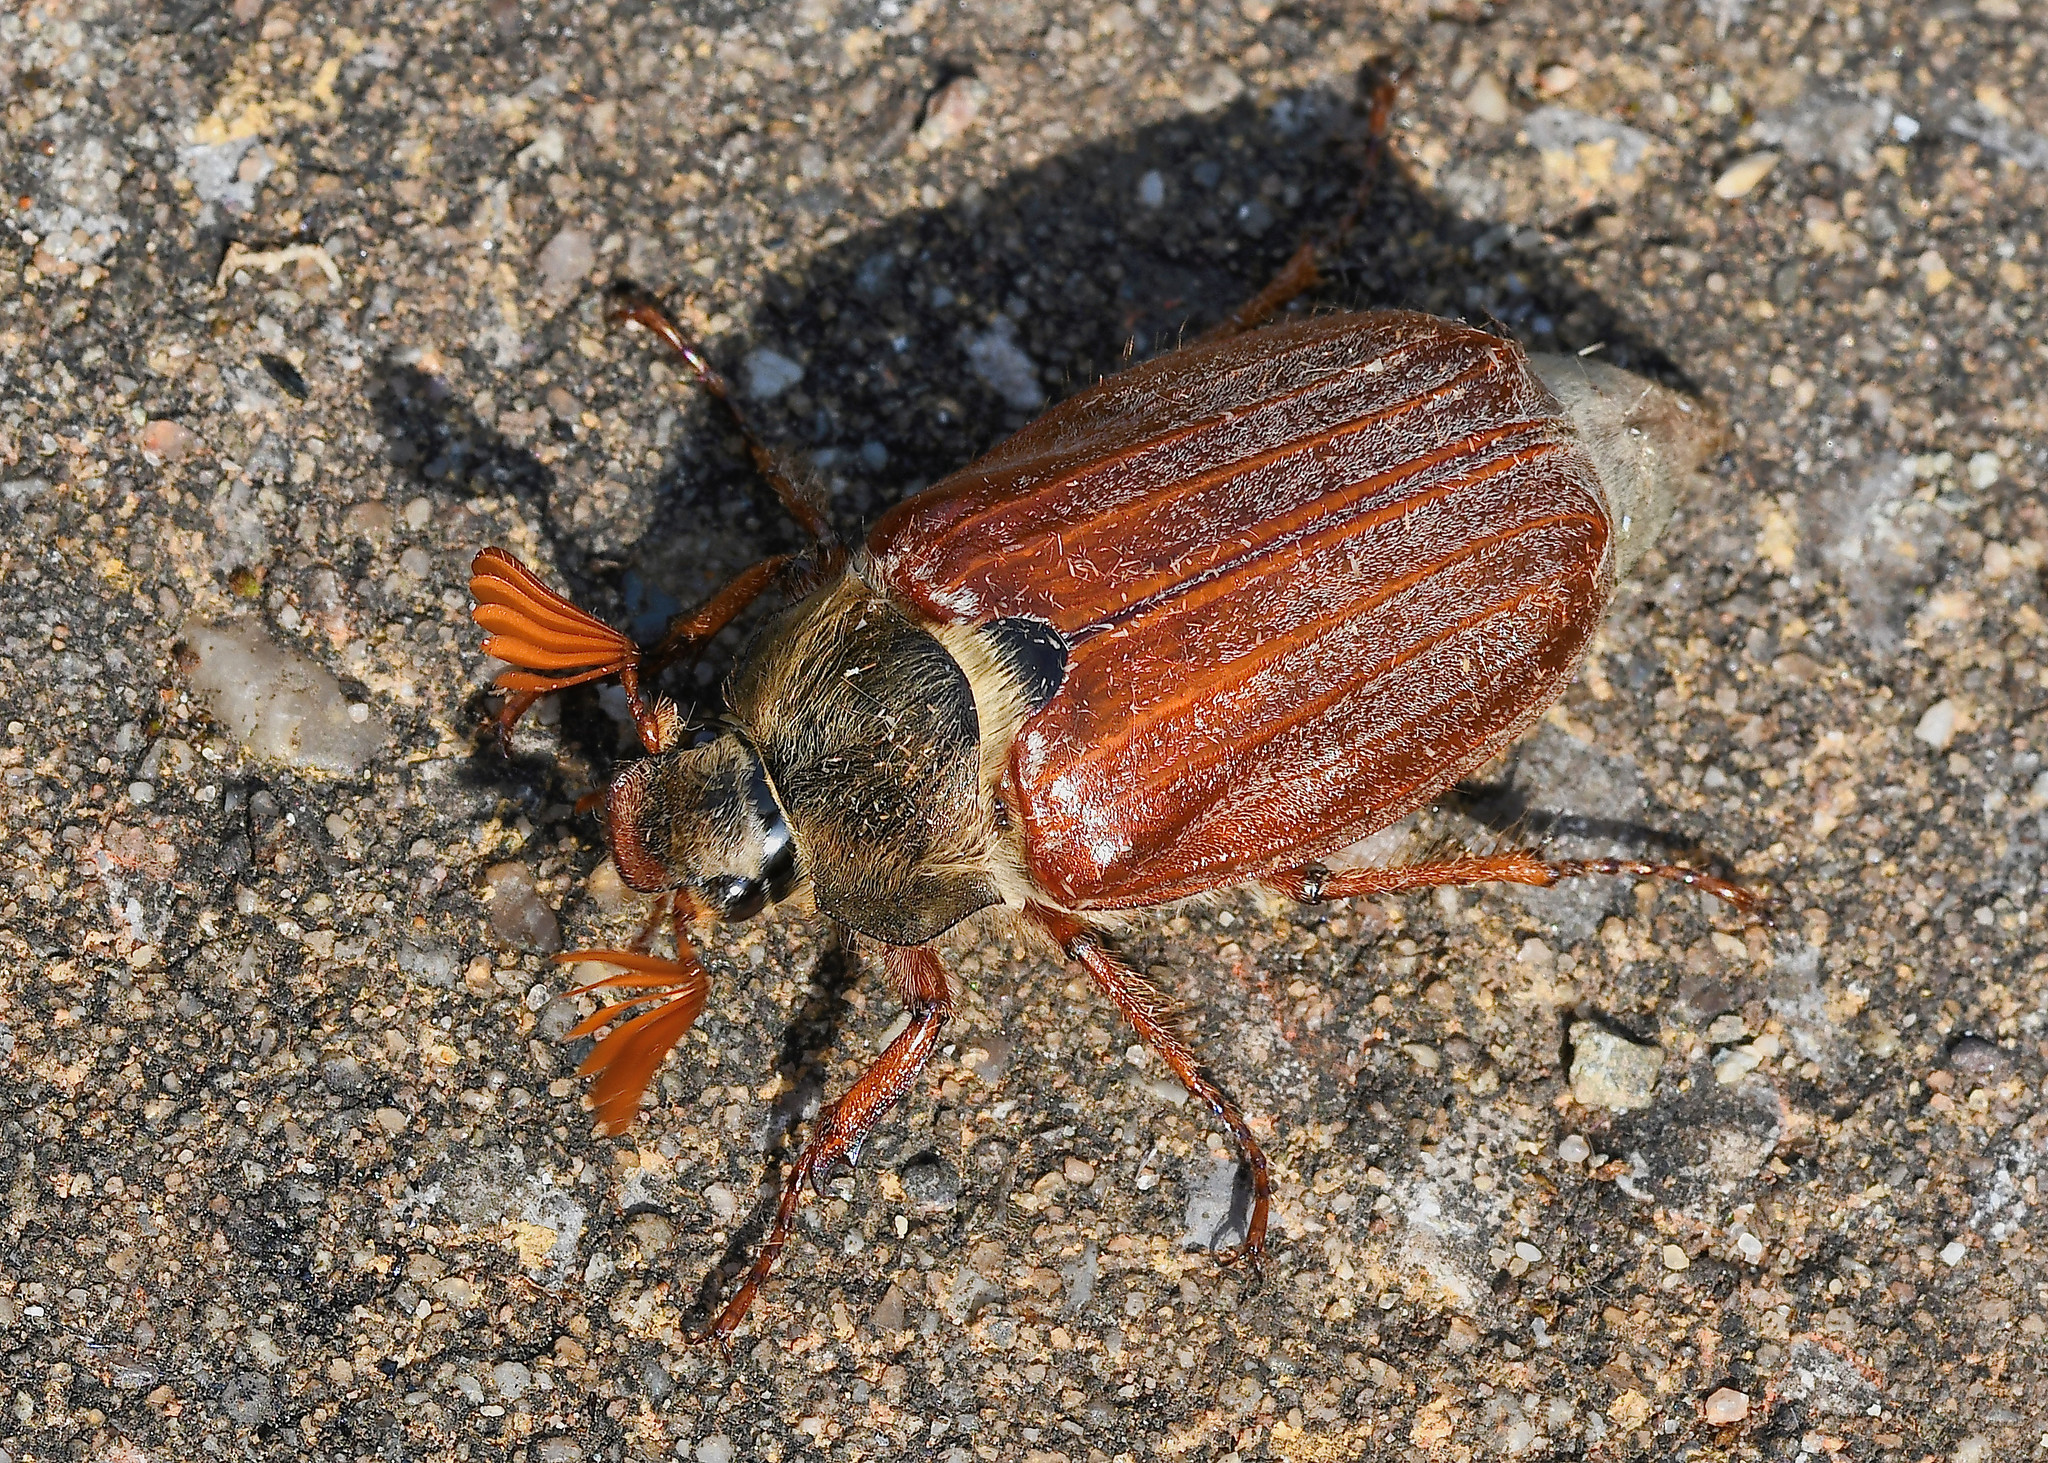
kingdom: Animalia
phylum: Arthropoda
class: Insecta
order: Coleoptera
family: Scarabaeidae
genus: Melolontha
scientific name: Melolontha melolontha
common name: Cockchafer maybeetle
